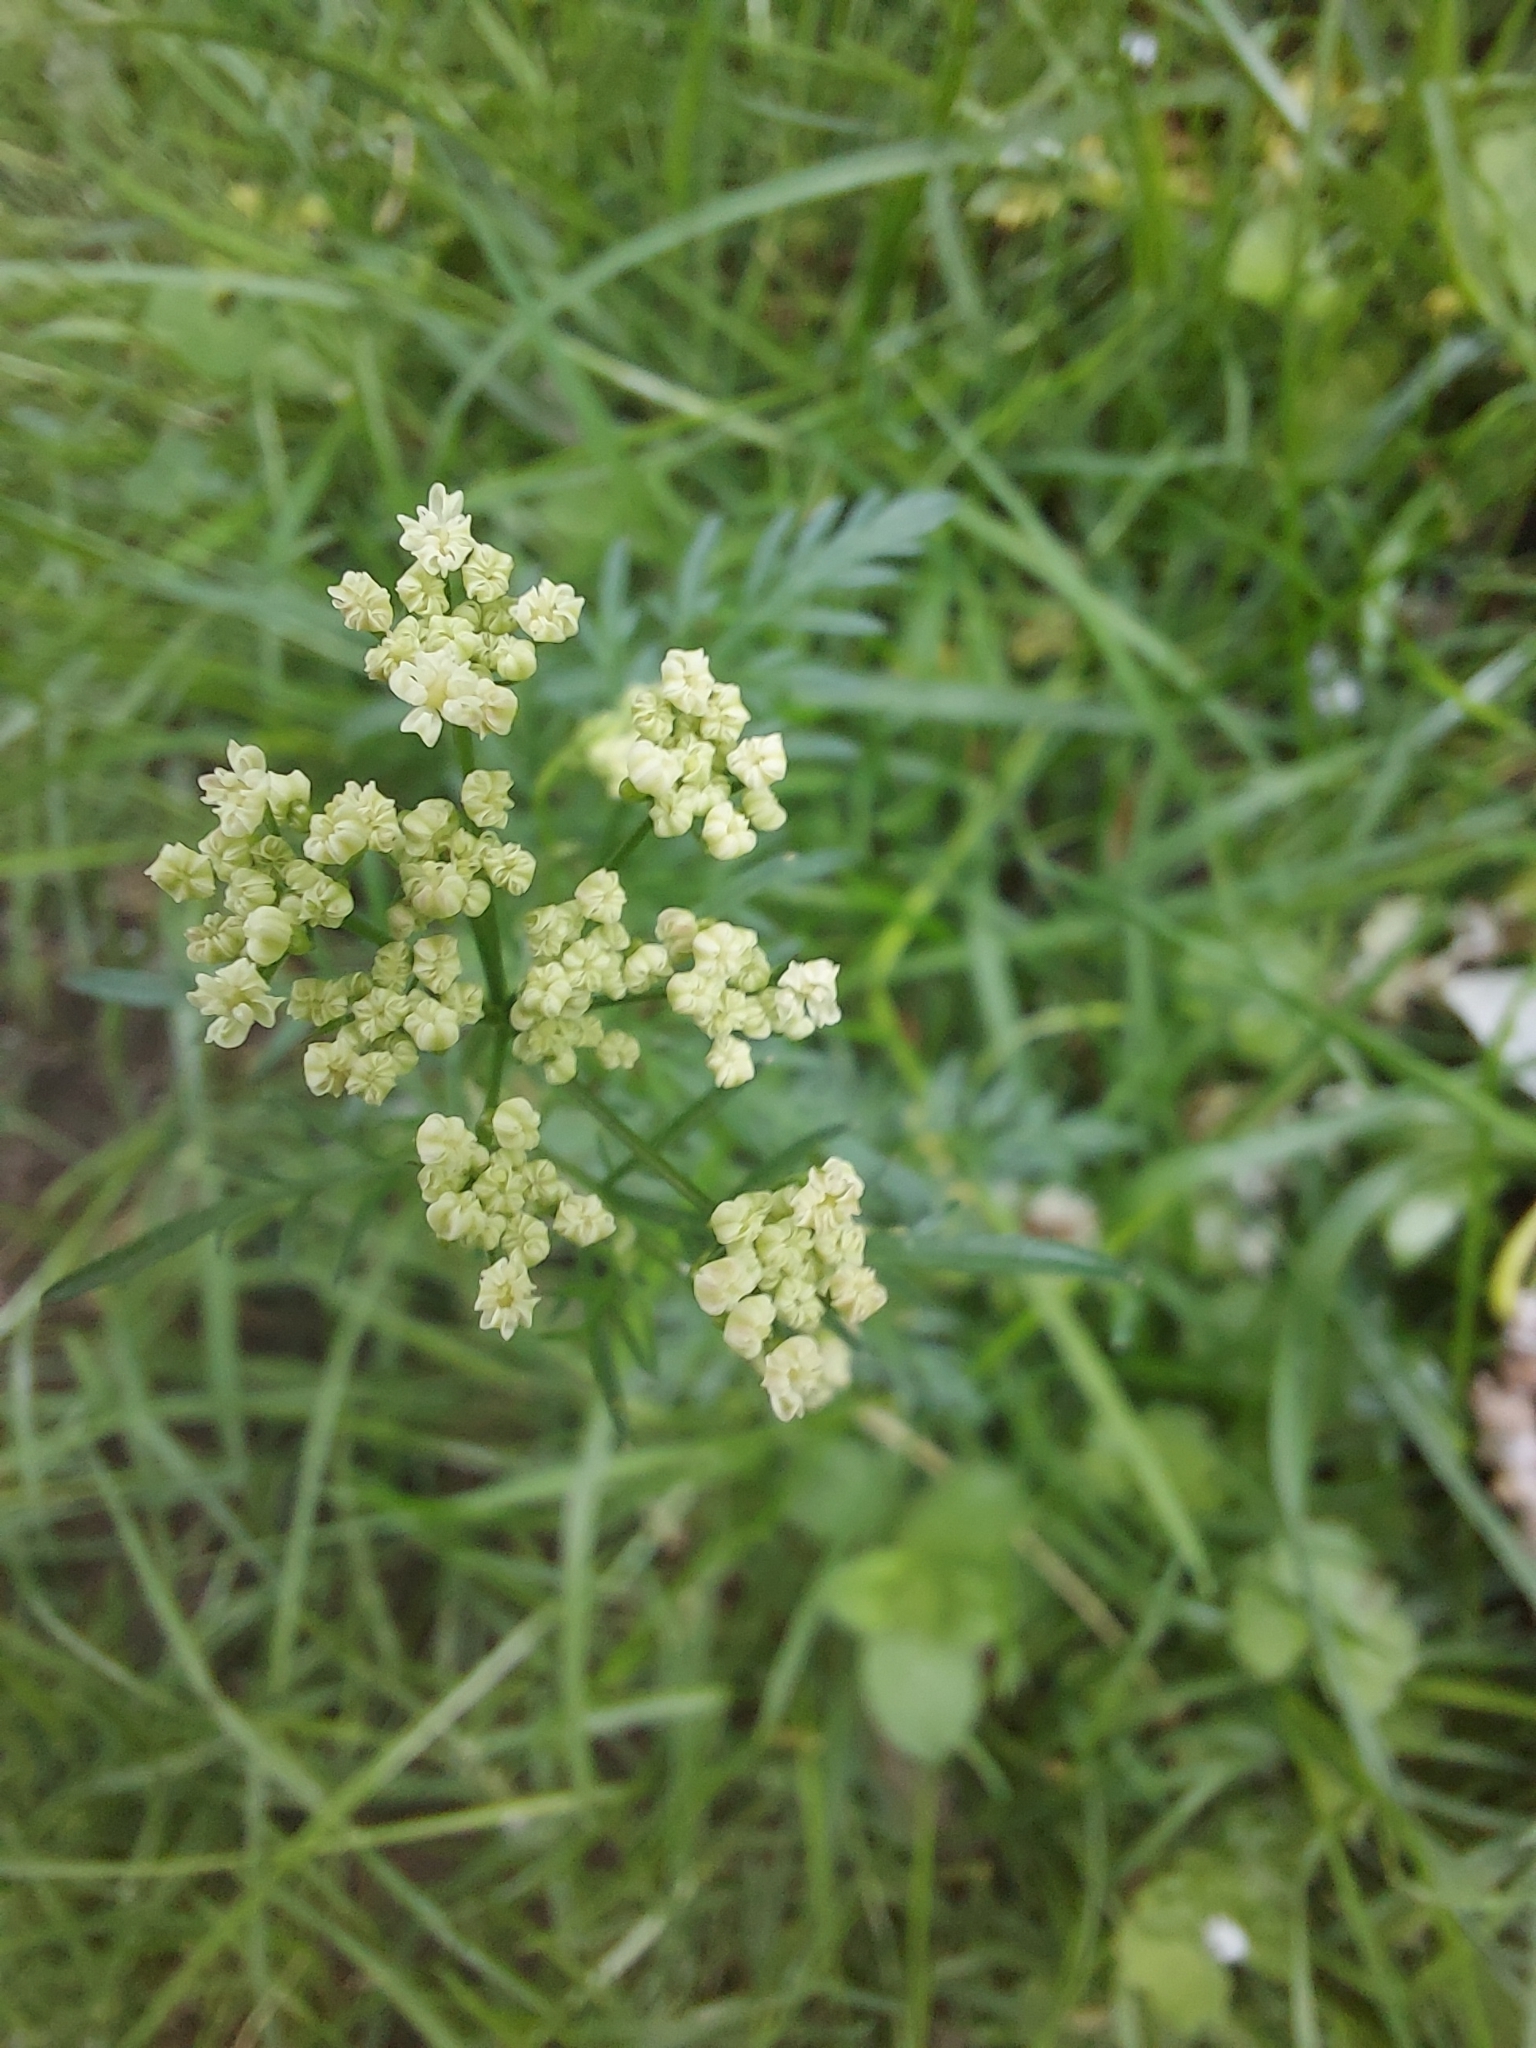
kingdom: Plantae
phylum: Tracheophyta
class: Magnoliopsida
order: Apiales
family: Apiaceae
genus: Conopodium
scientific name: Conopodium majus
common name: Pignut
